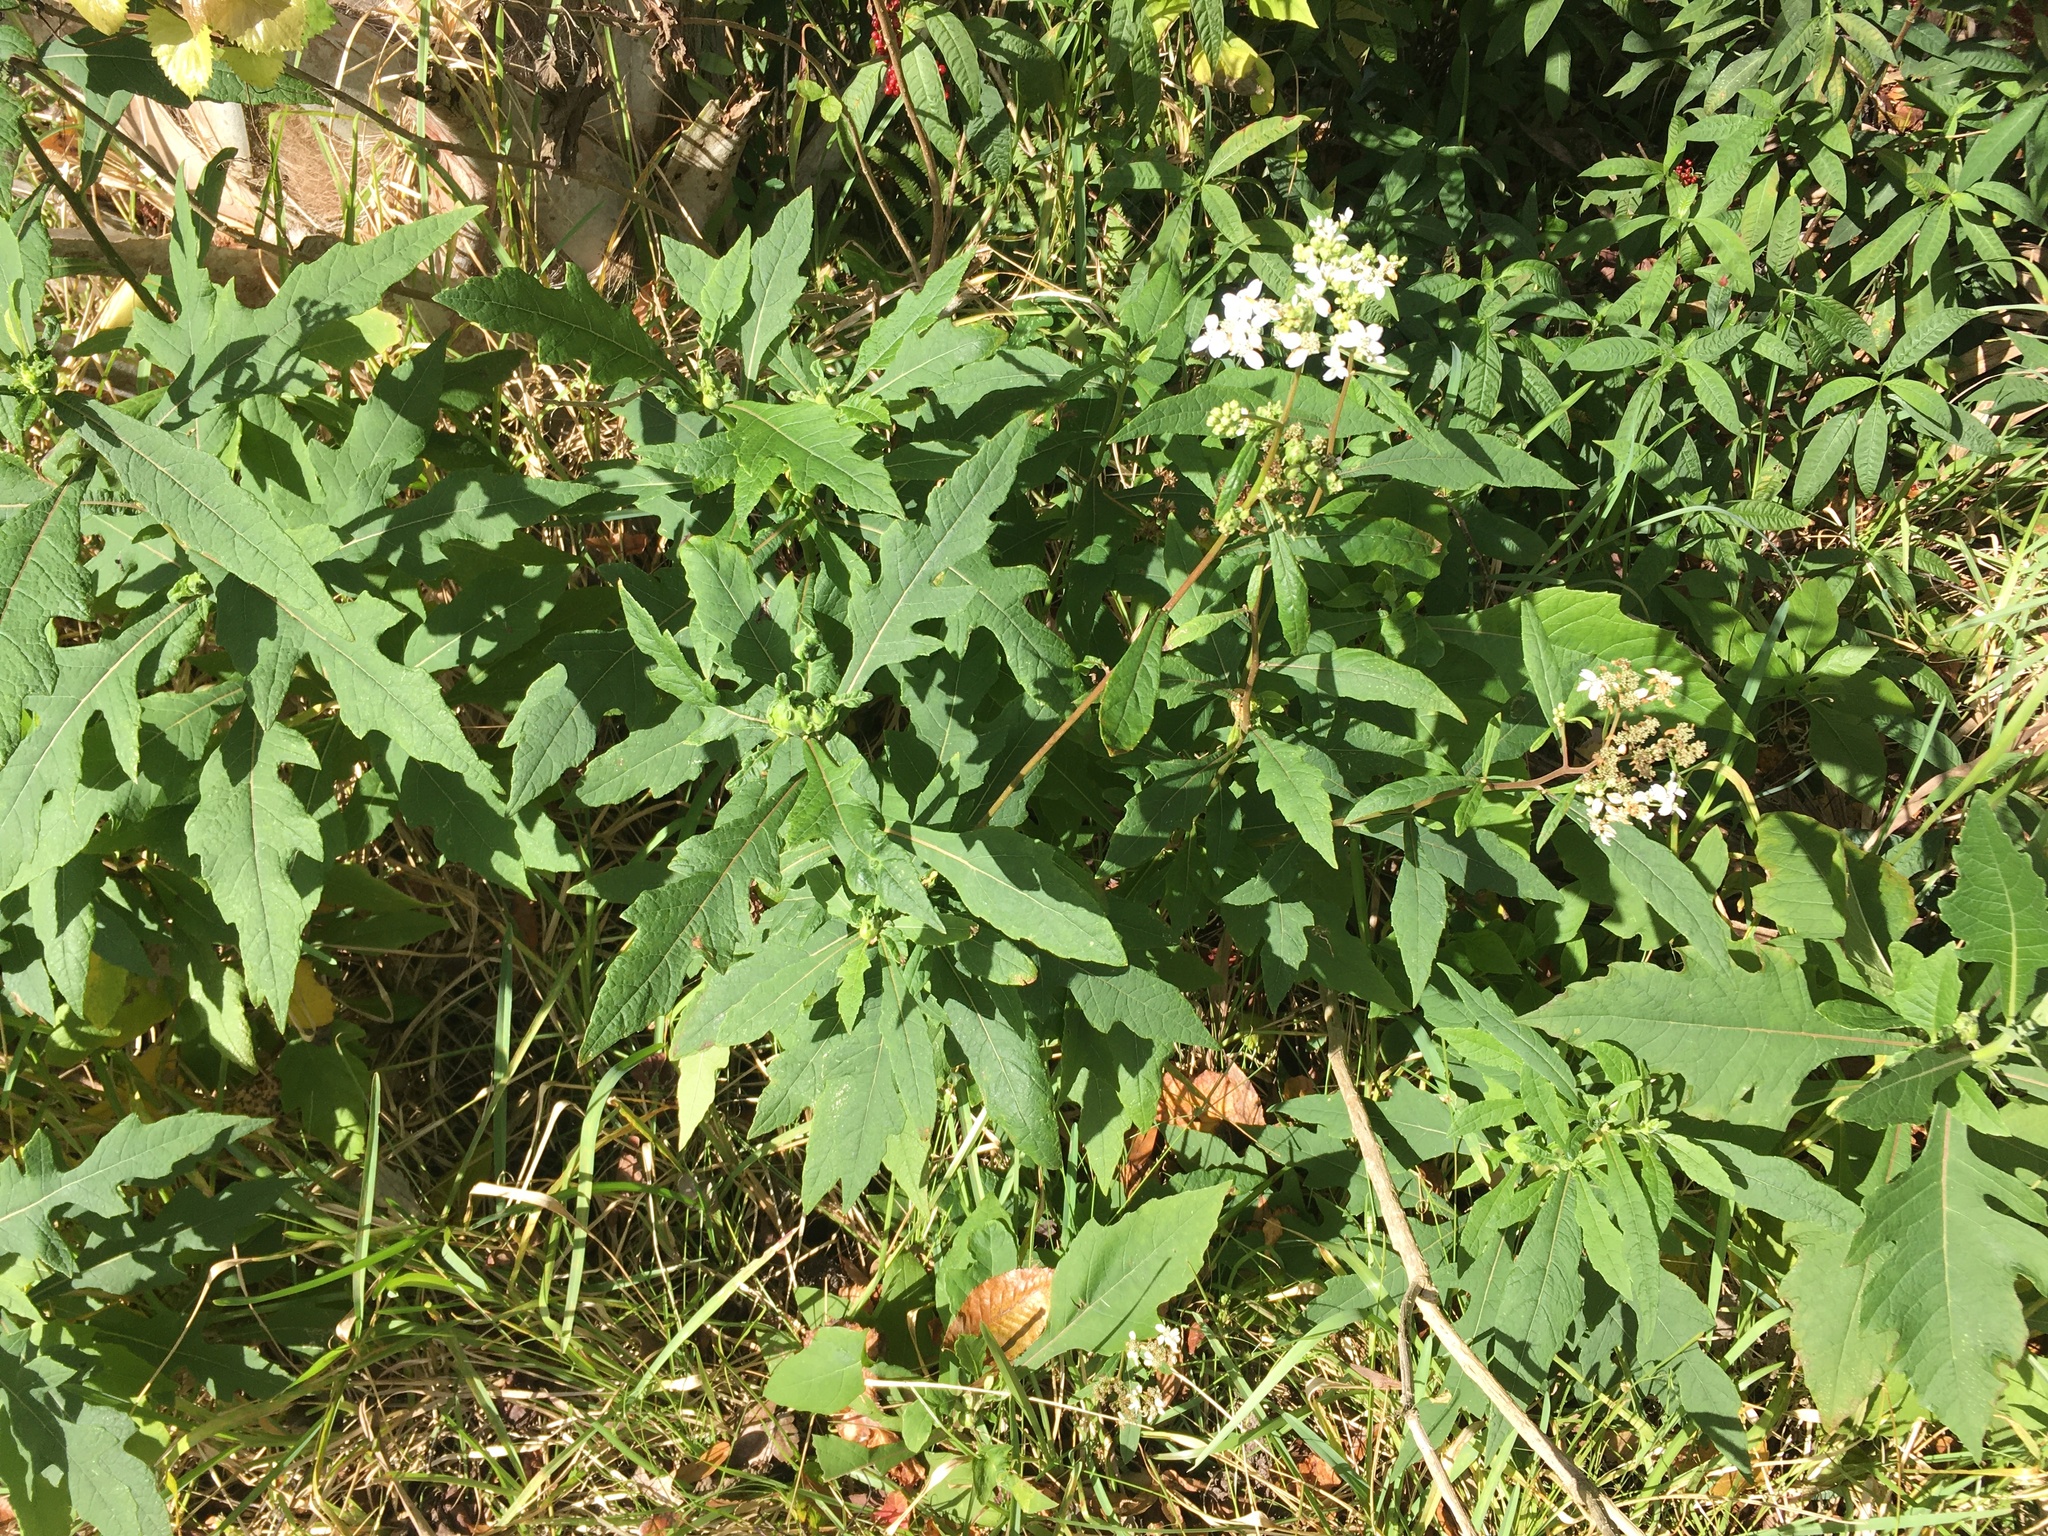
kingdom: Plantae
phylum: Tracheophyta
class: Magnoliopsida
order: Asterales
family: Asteraceae
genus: Verbesina
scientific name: Verbesina virginica
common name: Frostweed
